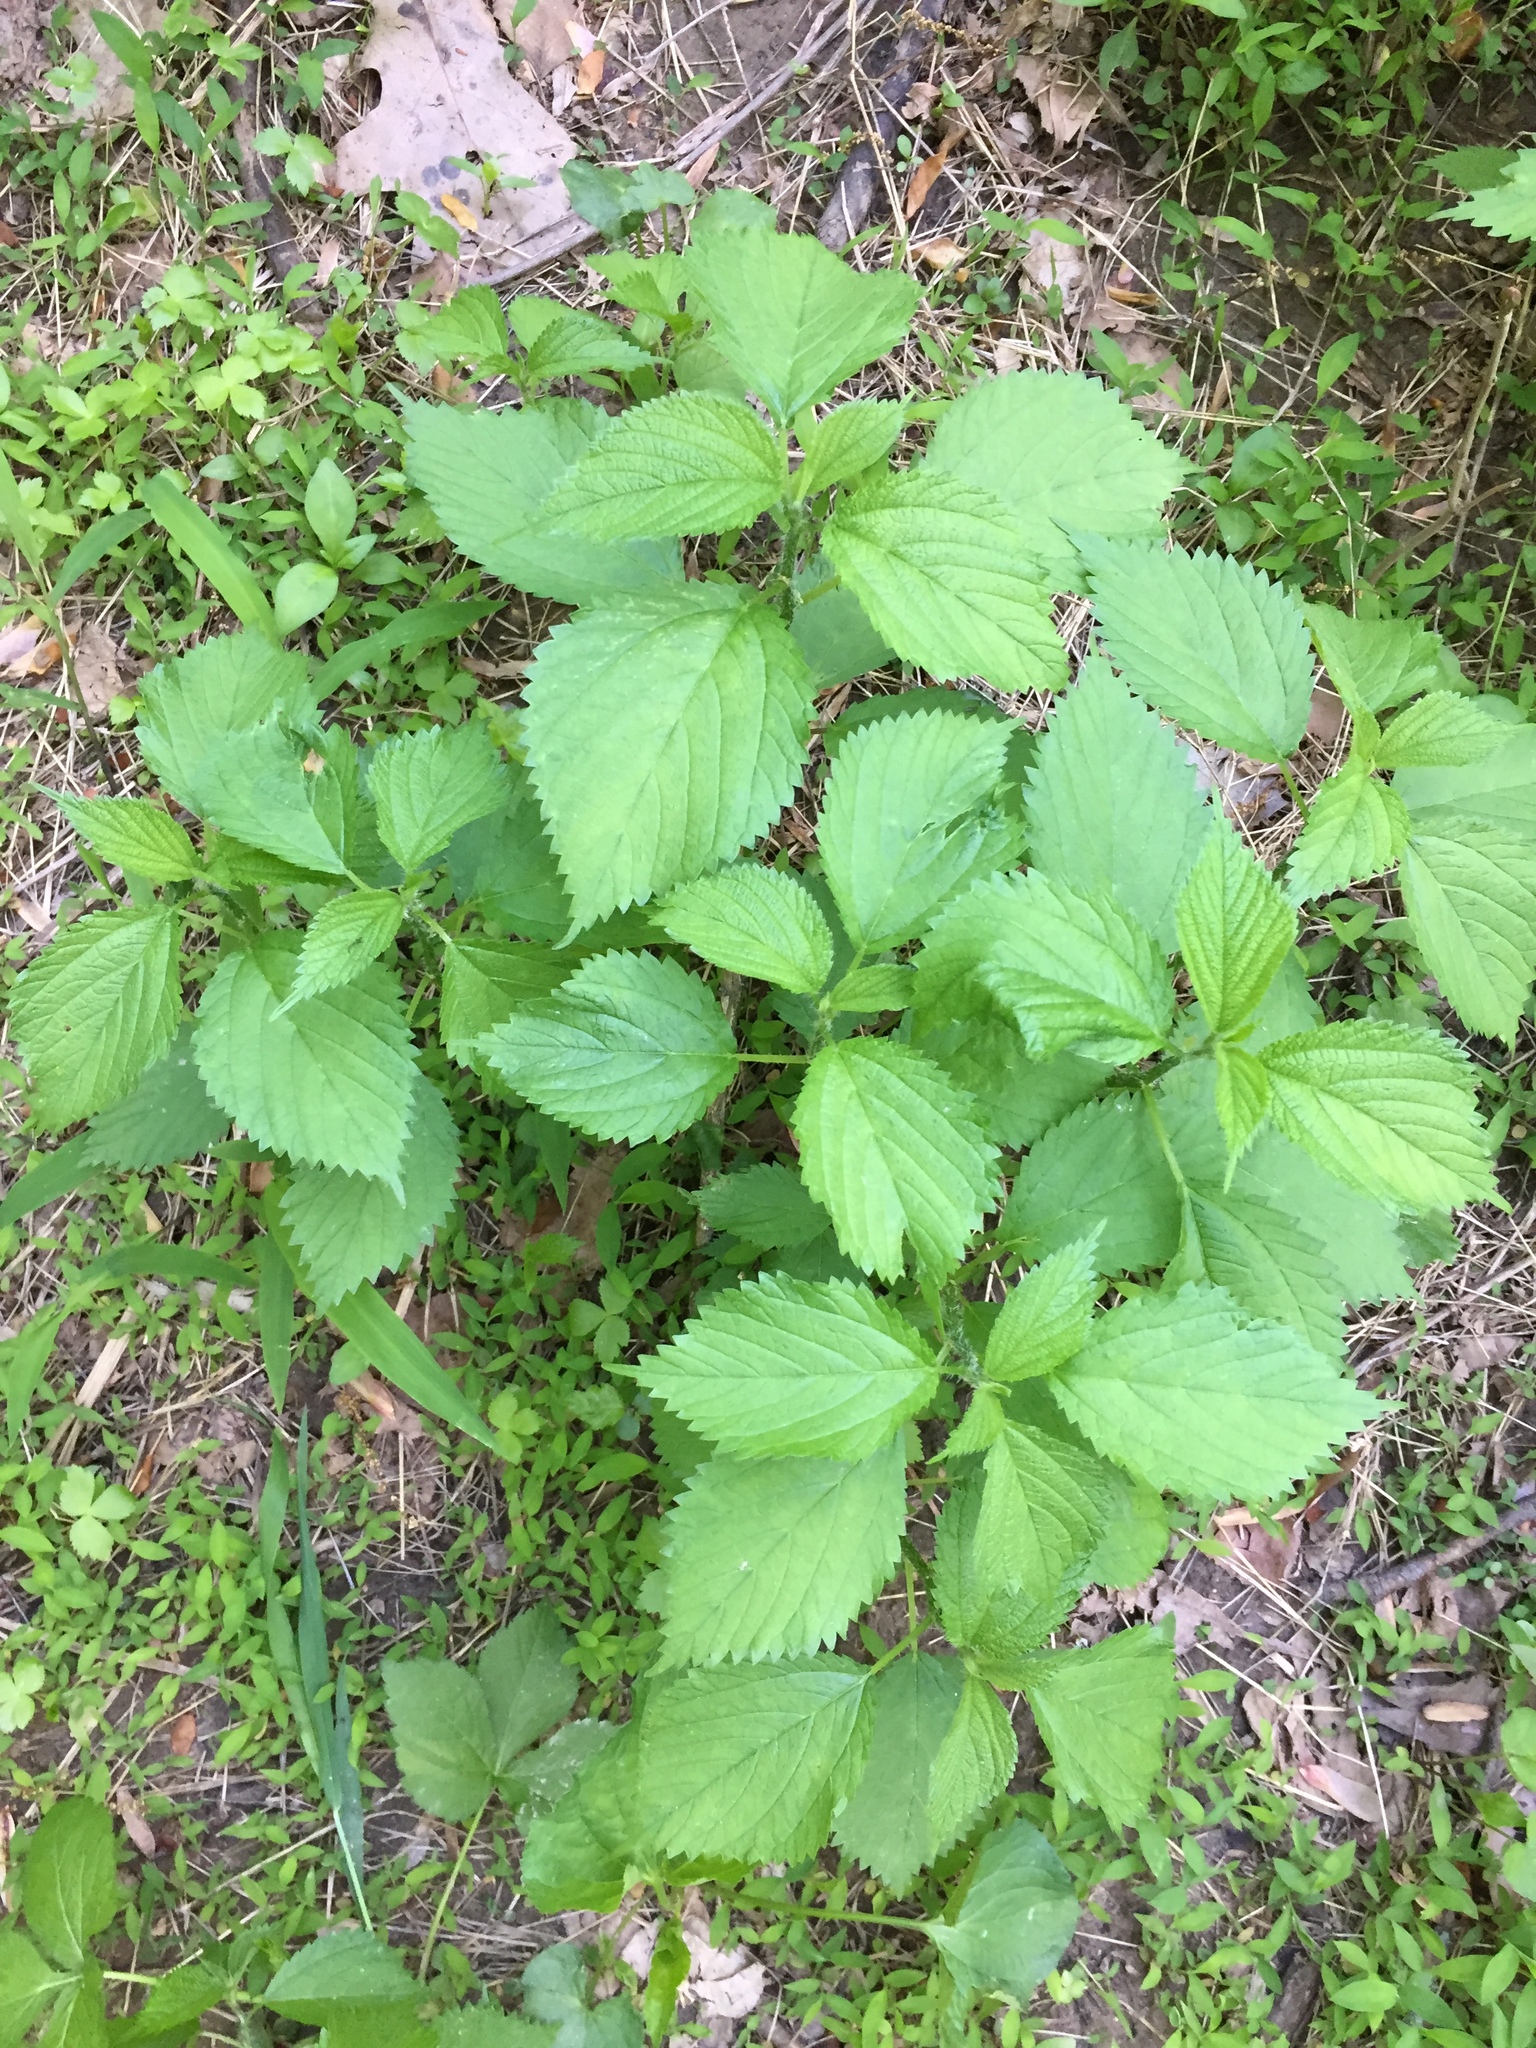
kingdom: Plantae
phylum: Tracheophyta
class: Magnoliopsida
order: Rosales
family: Urticaceae
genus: Laportea
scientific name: Laportea canadensis
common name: Canada nettle
